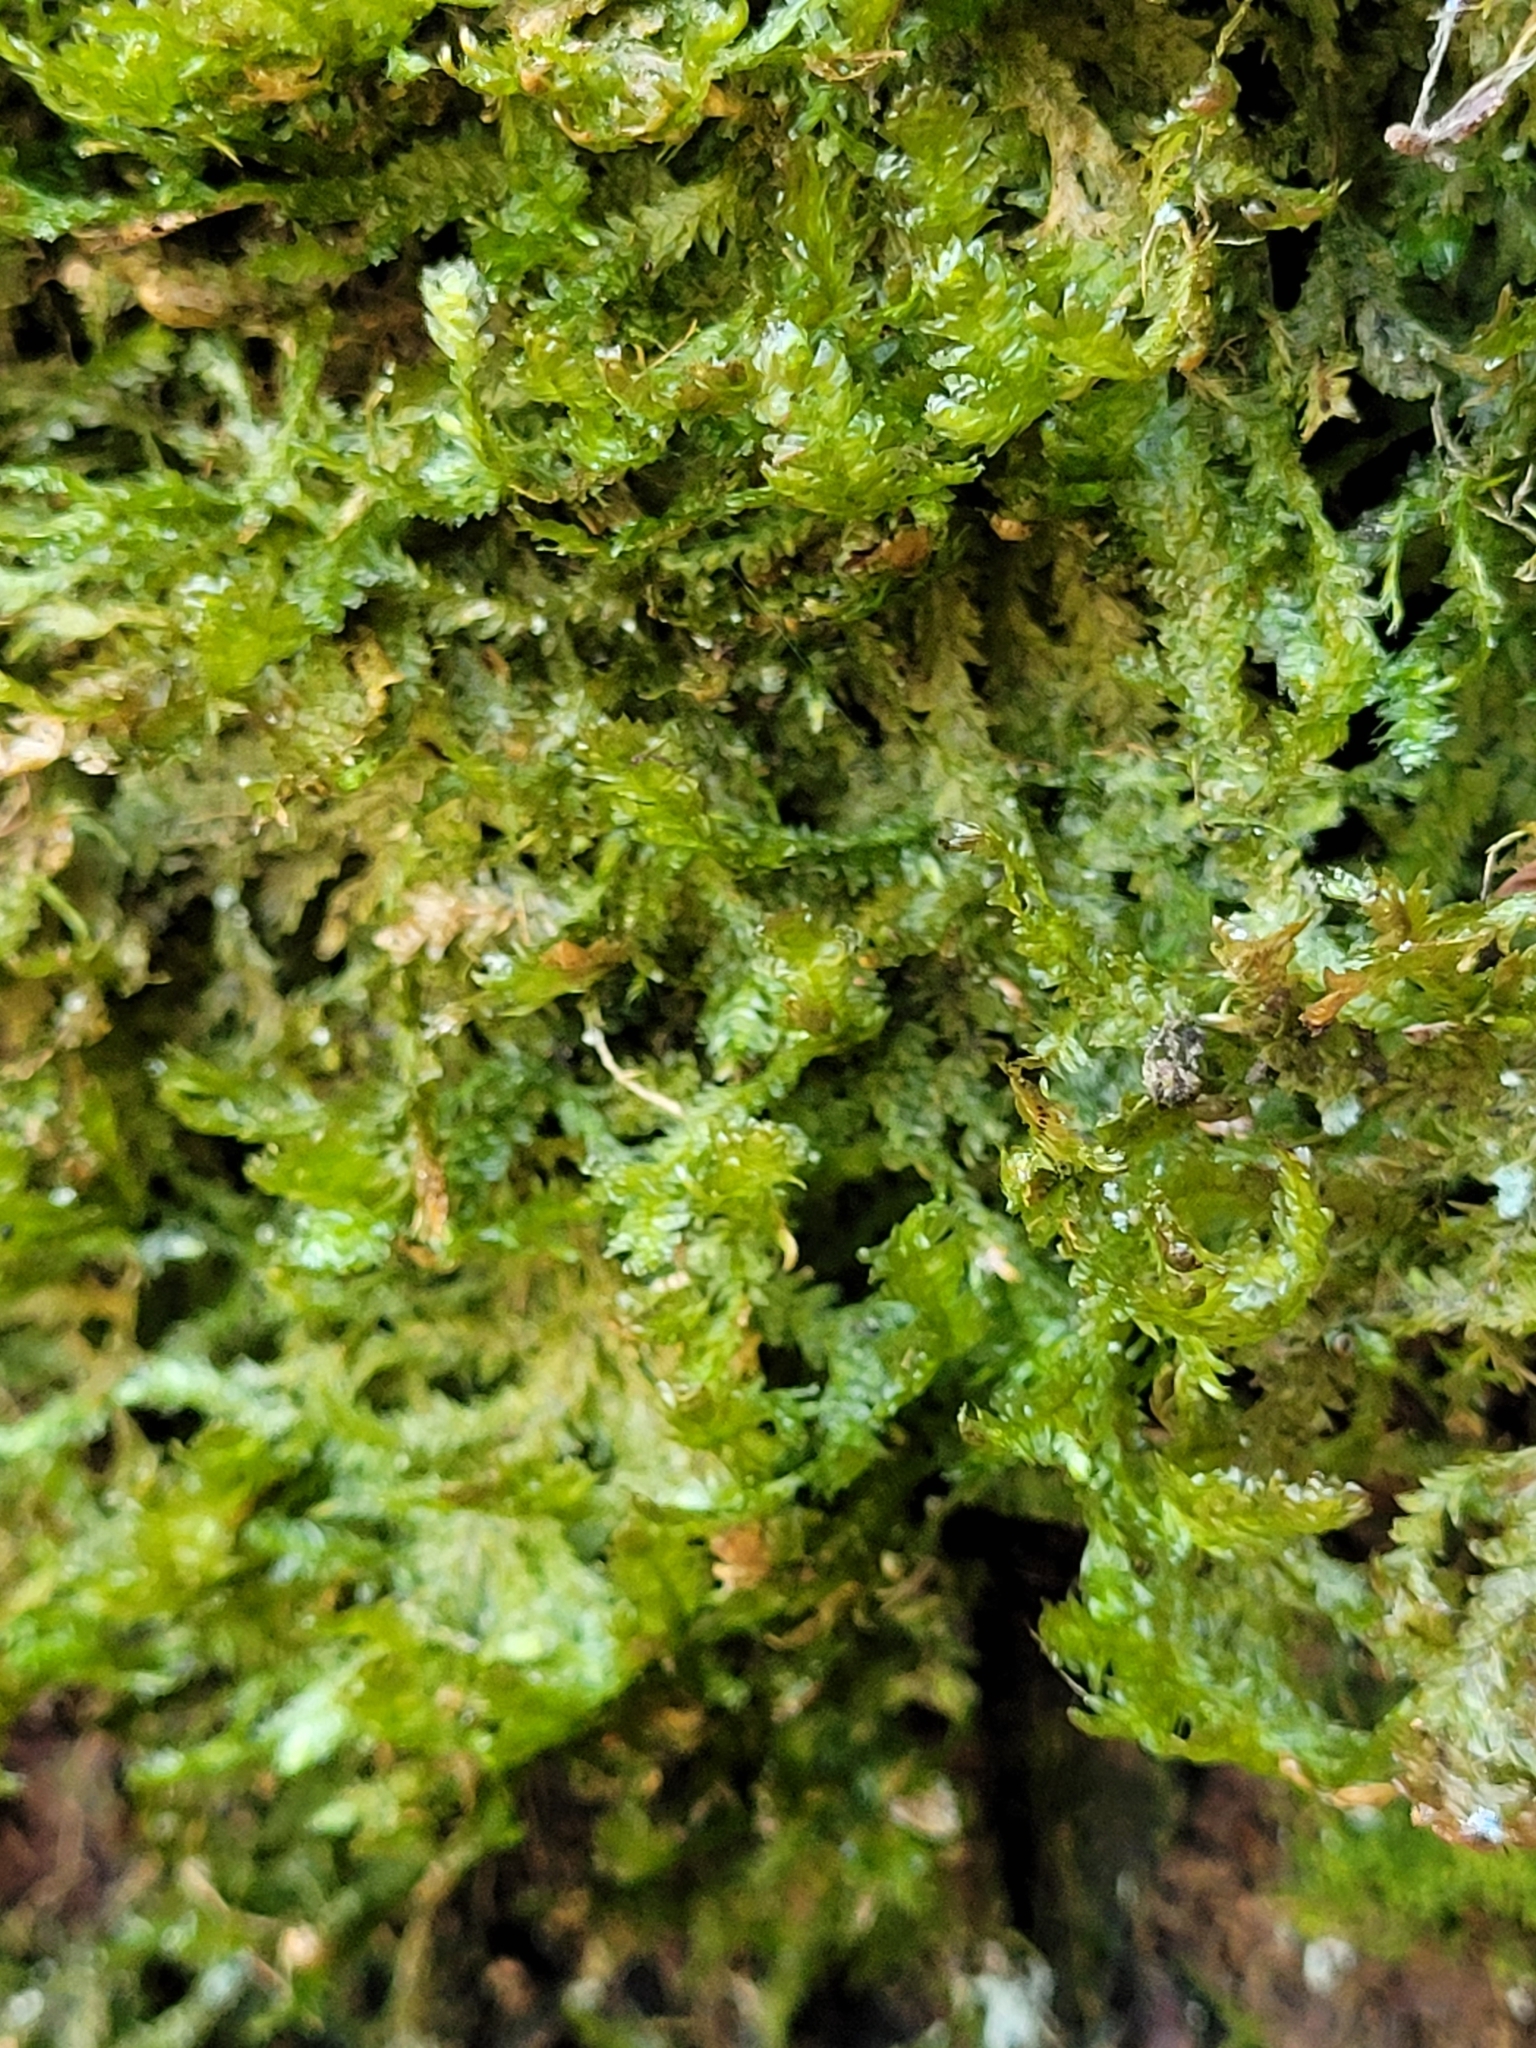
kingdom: Plantae
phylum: Bryophyta
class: Bryopsida
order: Hypnales
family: Neckeraceae
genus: Alleniella
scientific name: Alleniella complanata
